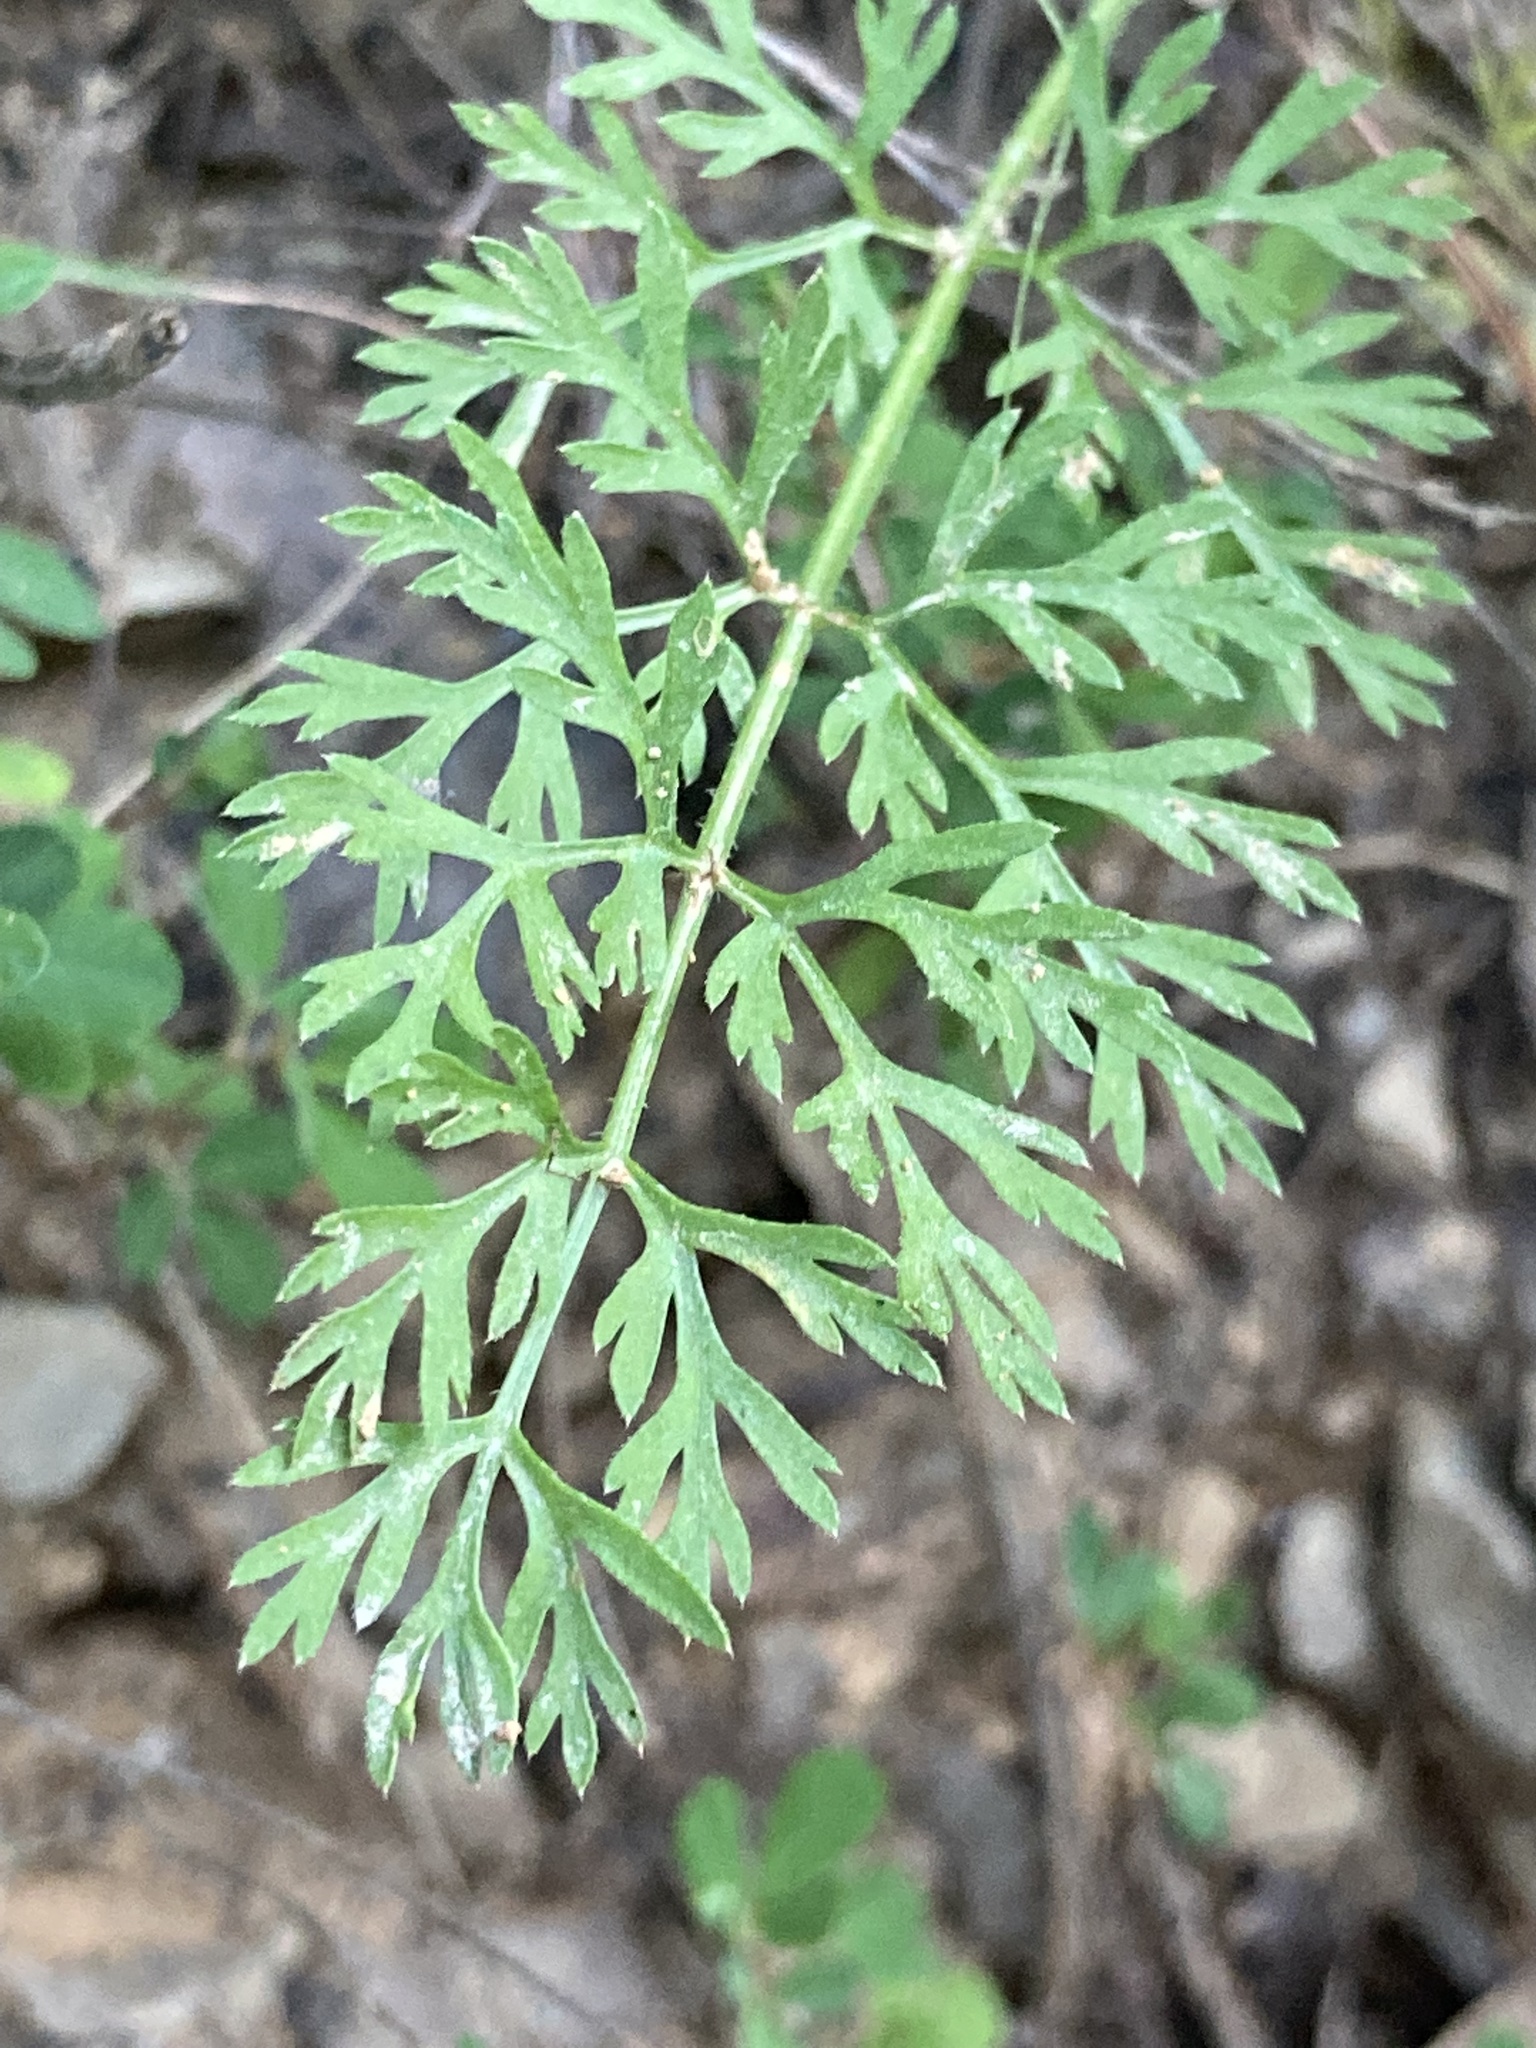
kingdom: Plantae
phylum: Tracheophyta
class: Magnoliopsida
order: Apiales
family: Apiaceae
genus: Daucus
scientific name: Daucus carota
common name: Wild carrot
